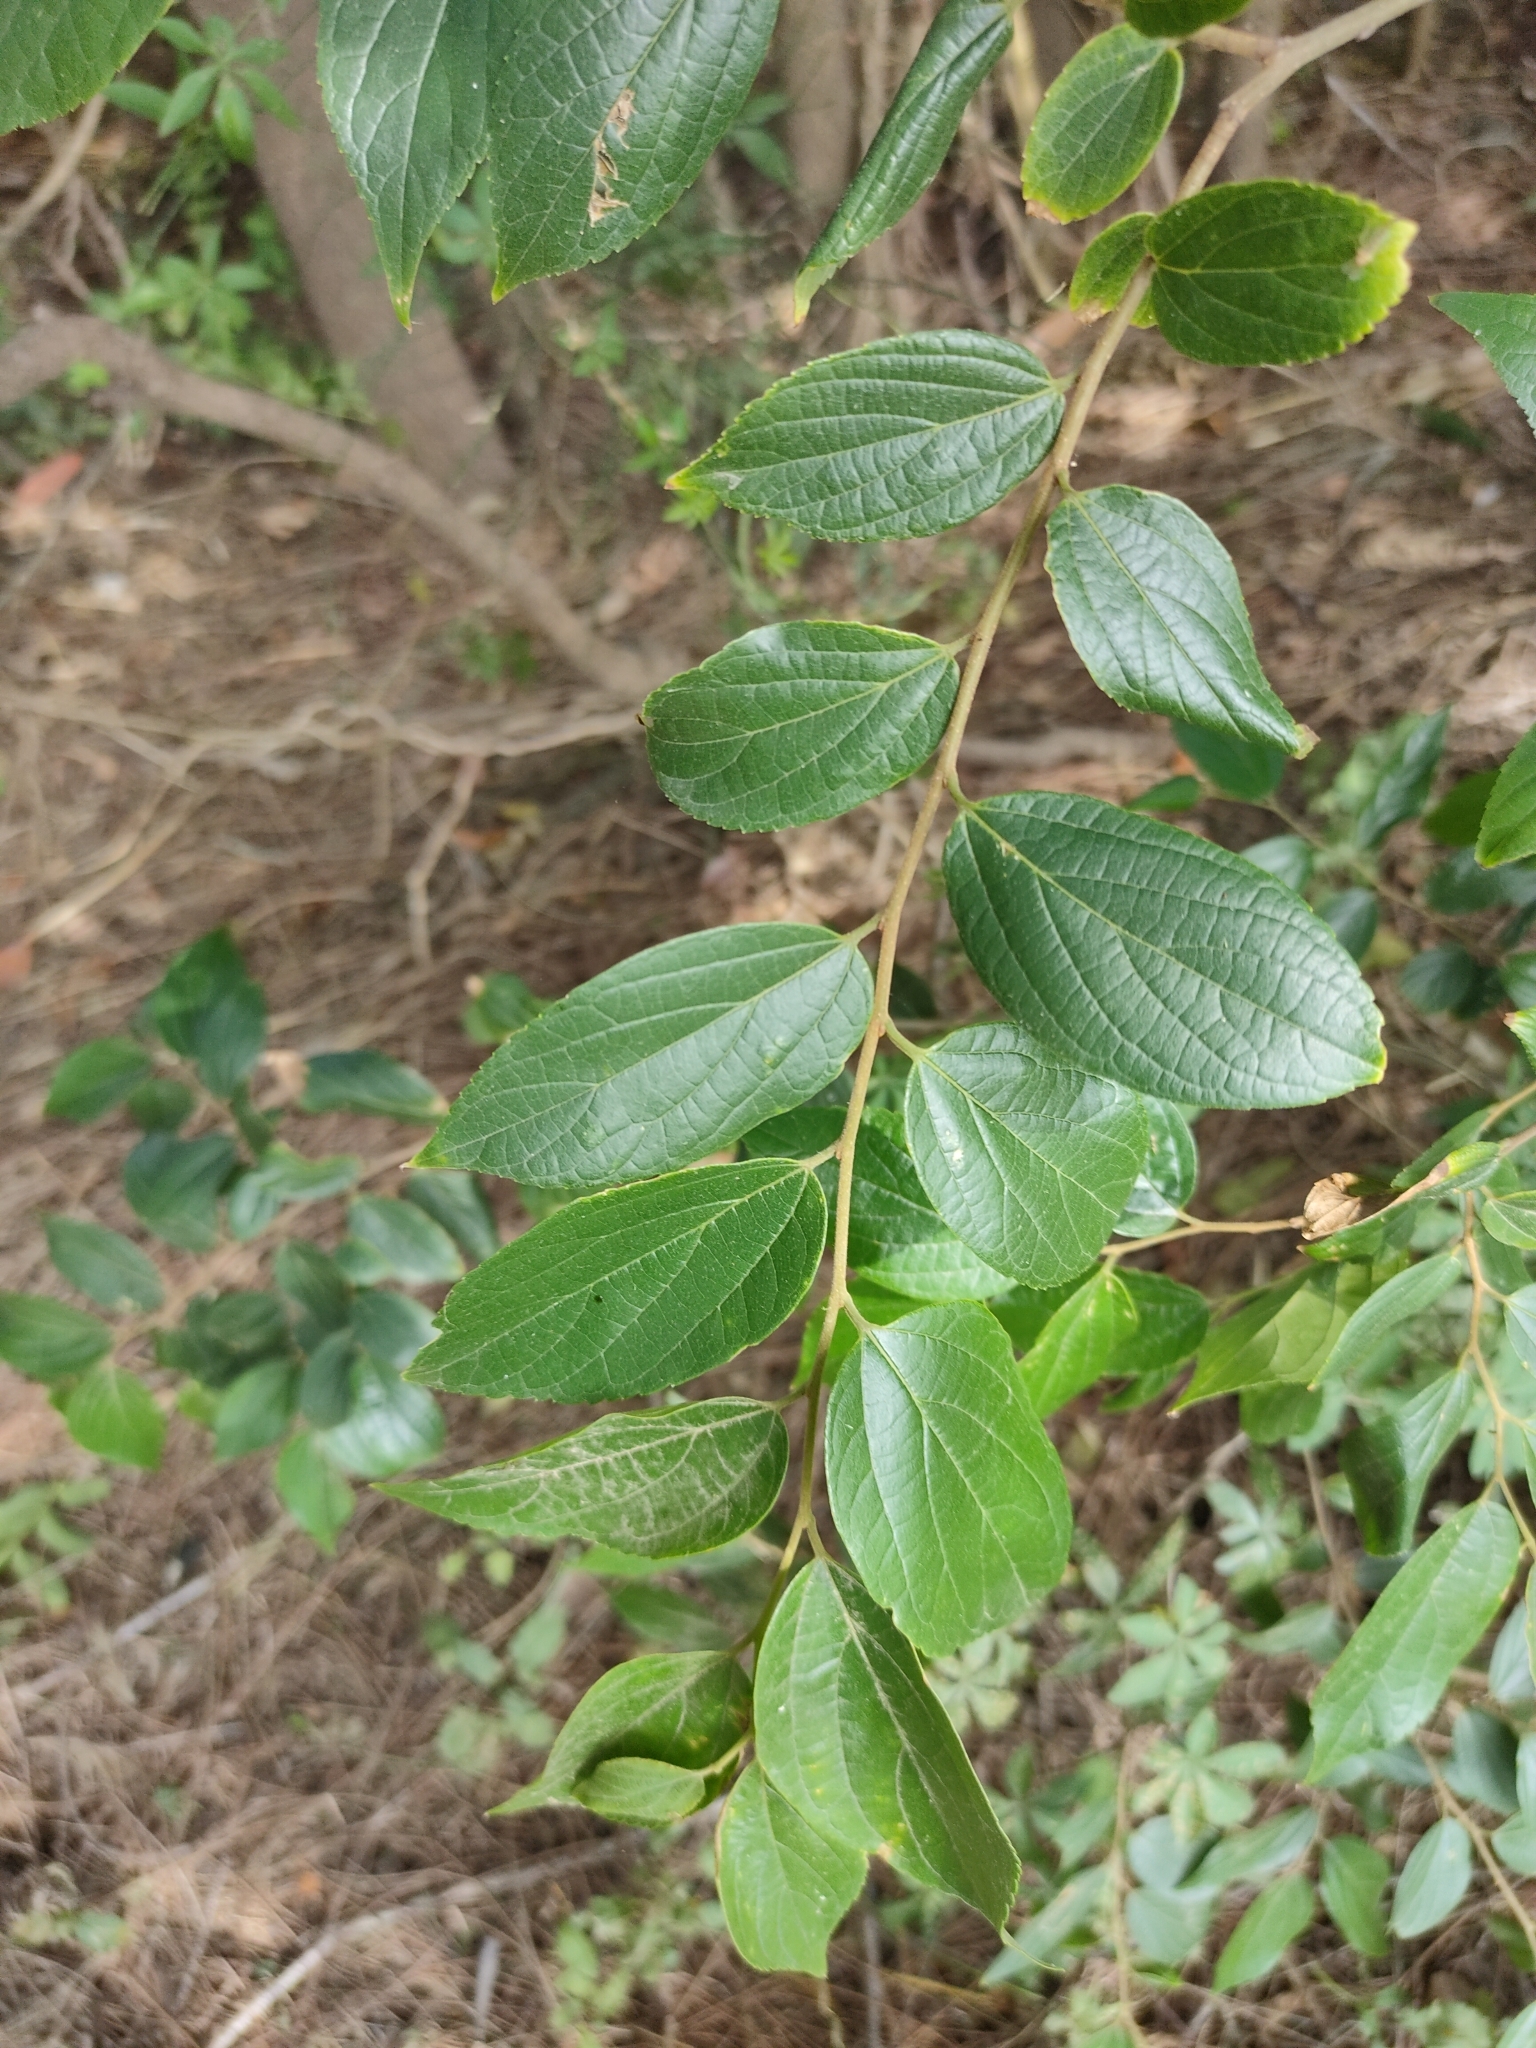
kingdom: Plantae
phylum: Tracheophyta
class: Magnoliopsida
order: Rosales
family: Cannabaceae
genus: Celtis
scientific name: Celtis sinensis
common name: Chinese hackberry
